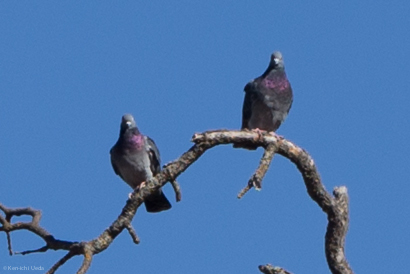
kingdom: Animalia
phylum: Chordata
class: Aves
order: Columbiformes
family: Columbidae
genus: Columba
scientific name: Columba livia
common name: Rock pigeon
